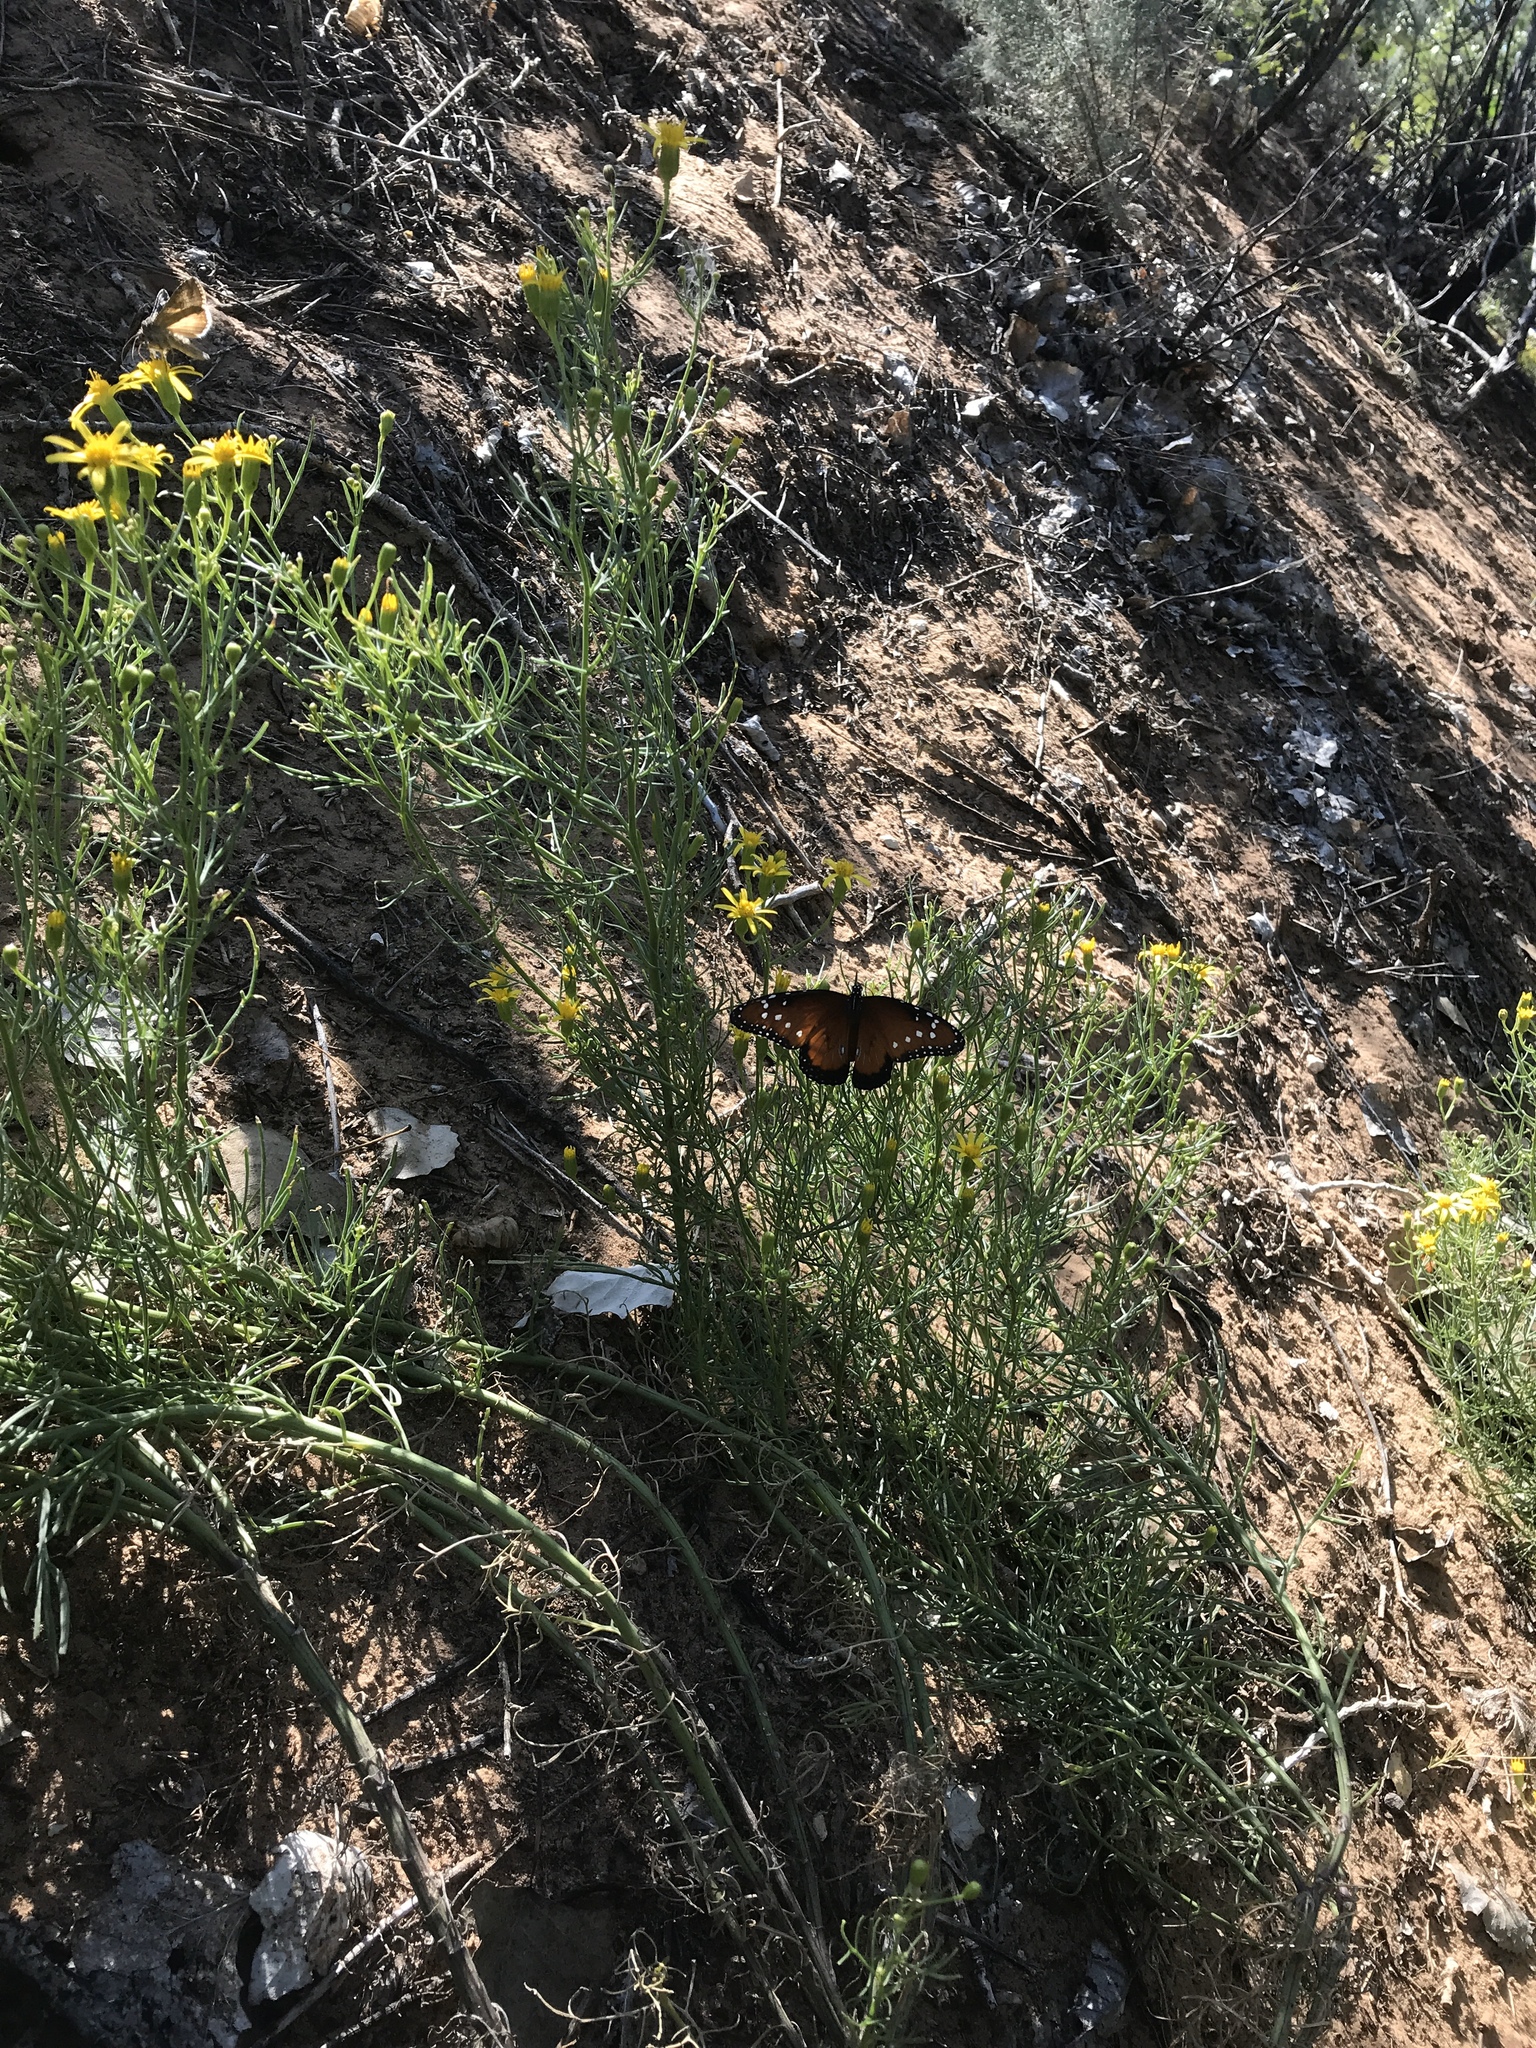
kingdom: Animalia
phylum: Arthropoda
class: Insecta
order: Lepidoptera
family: Nymphalidae
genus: Danaus
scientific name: Danaus gilippus
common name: Queen
